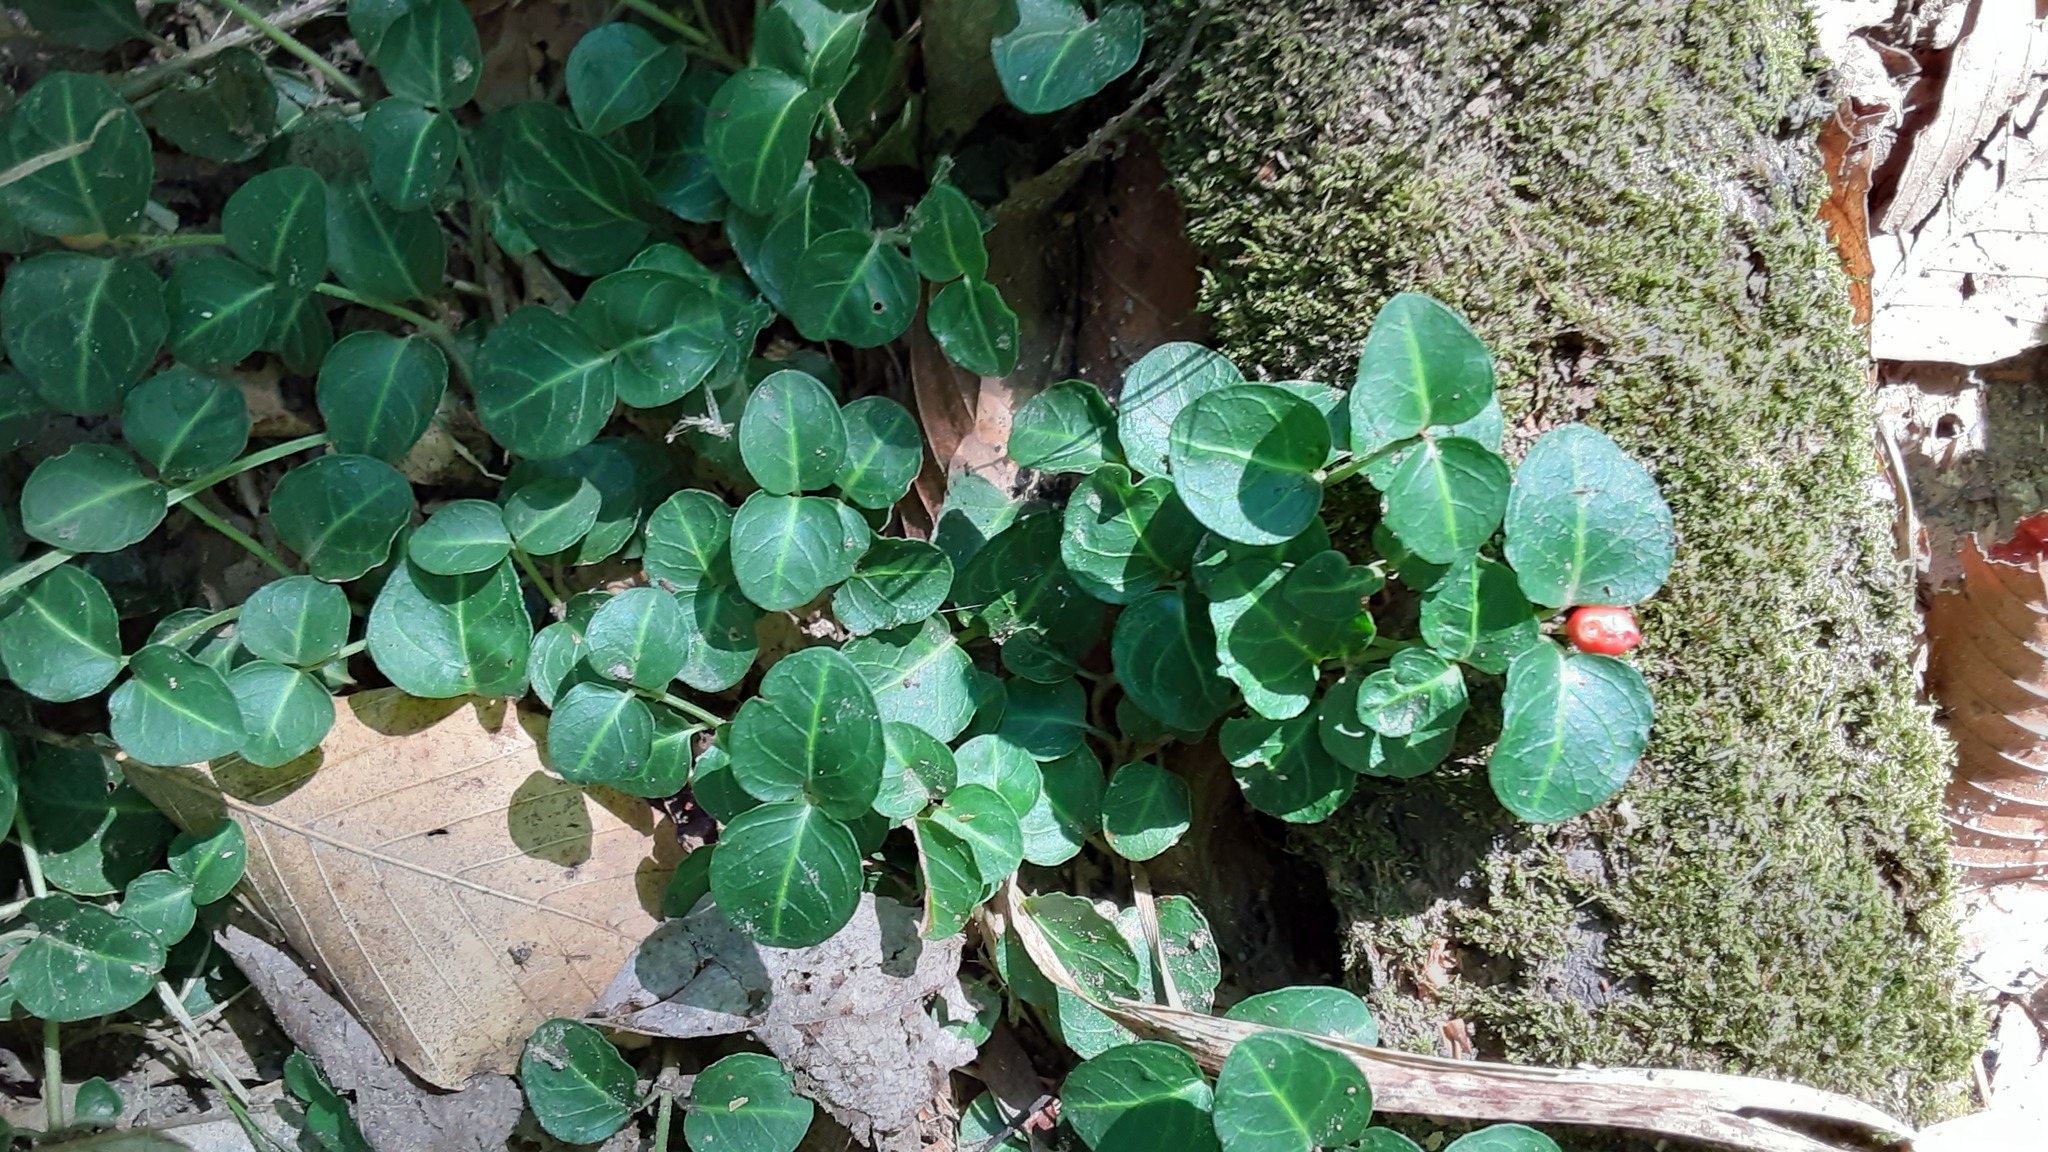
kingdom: Plantae
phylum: Tracheophyta
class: Magnoliopsida
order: Gentianales
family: Rubiaceae
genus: Mitchella
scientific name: Mitchella repens
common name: Partridge-berry
